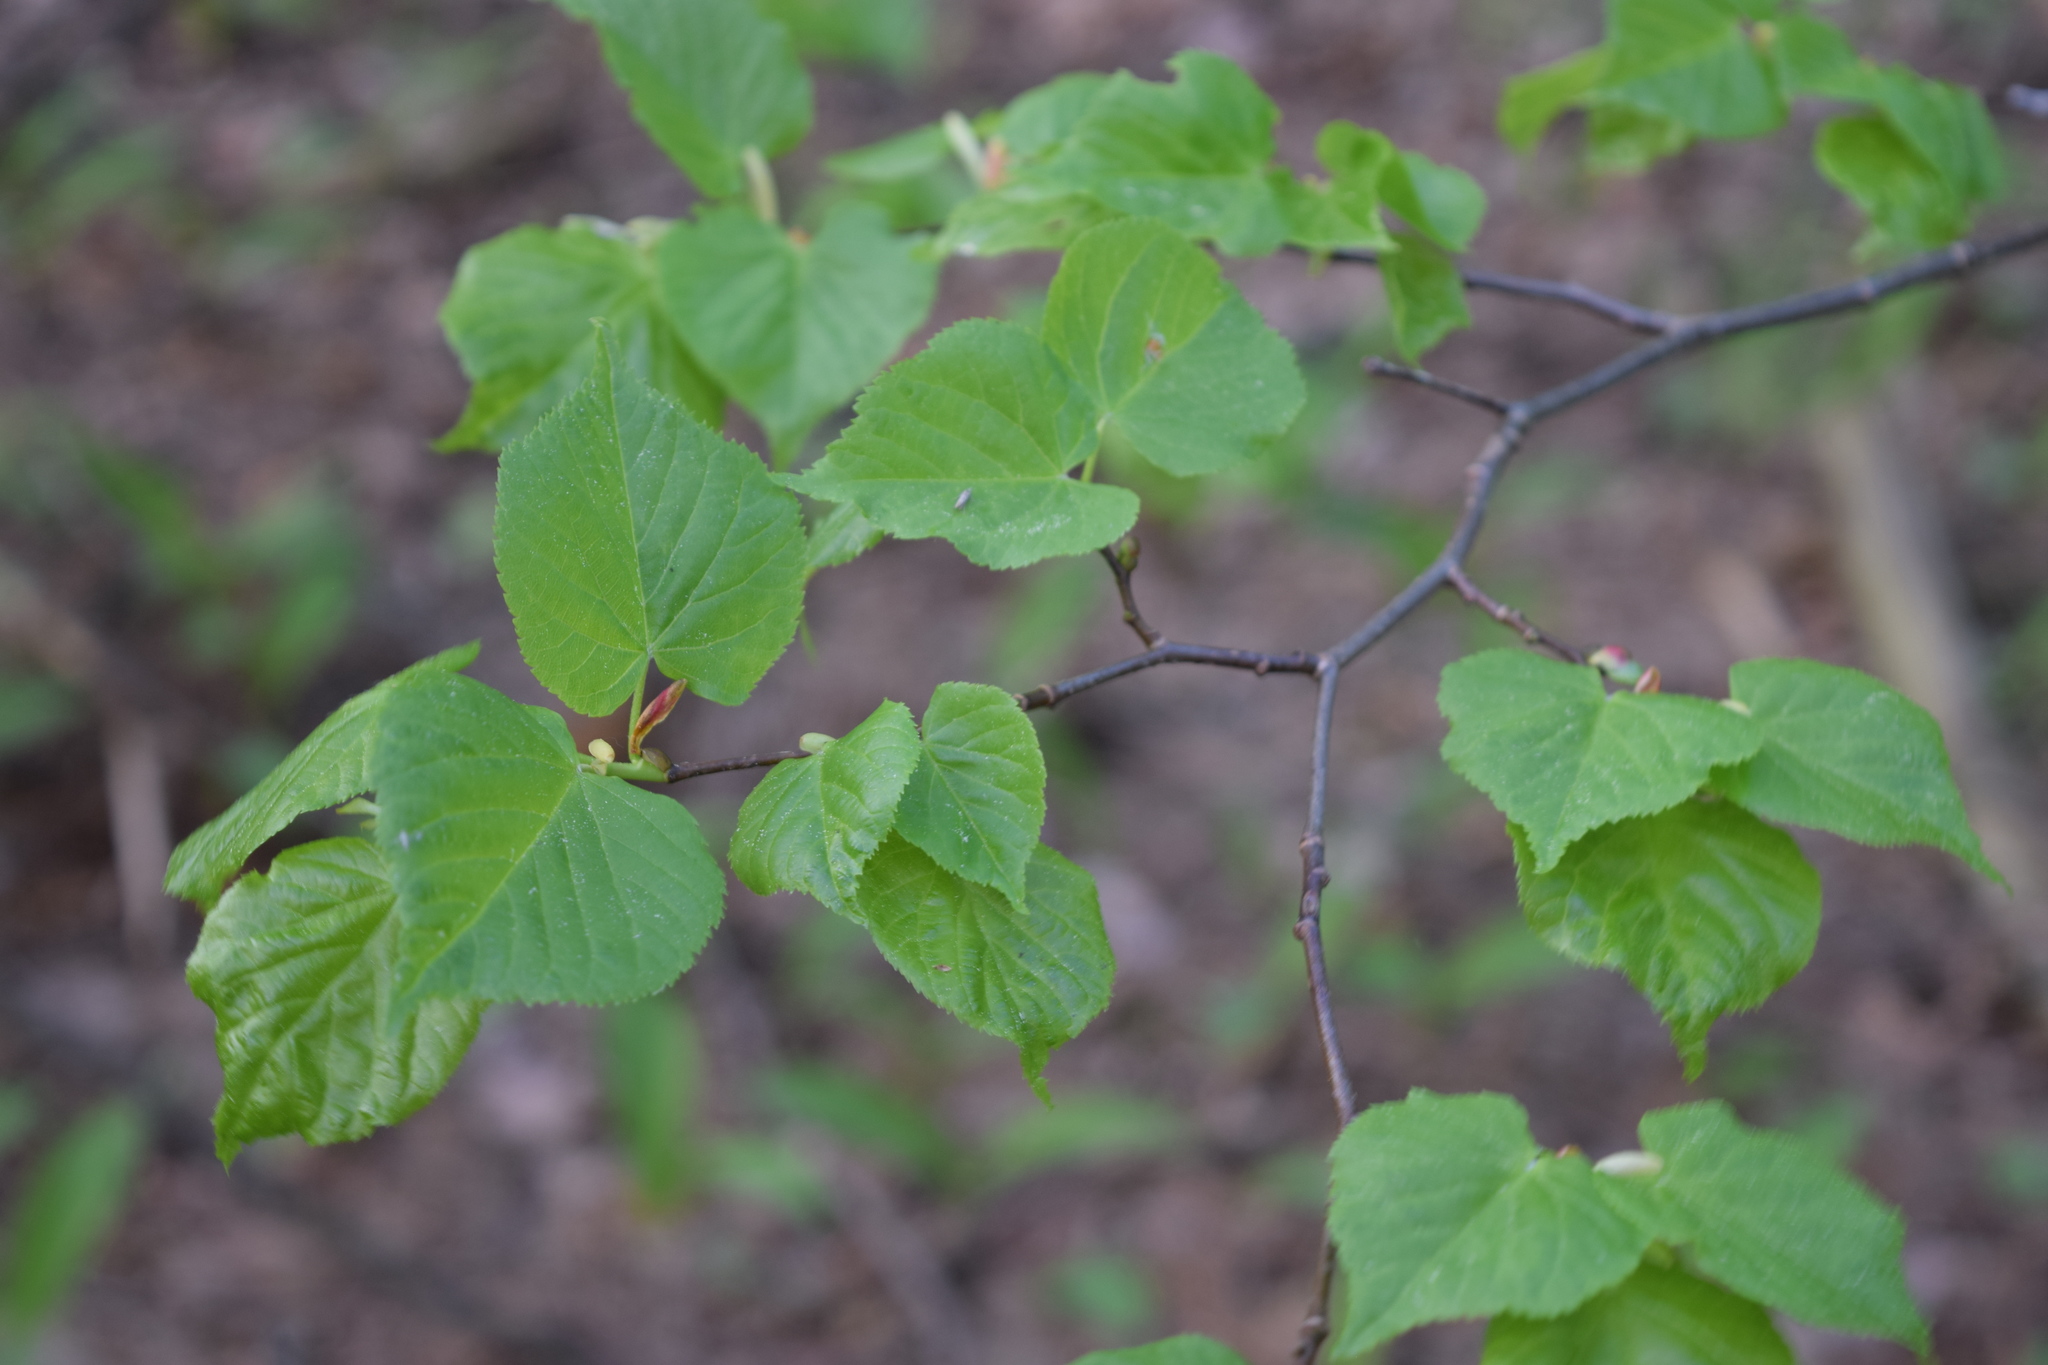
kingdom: Plantae
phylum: Tracheophyta
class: Magnoliopsida
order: Malvales
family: Malvaceae
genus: Tilia
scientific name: Tilia cordata
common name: Small-leaved lime
